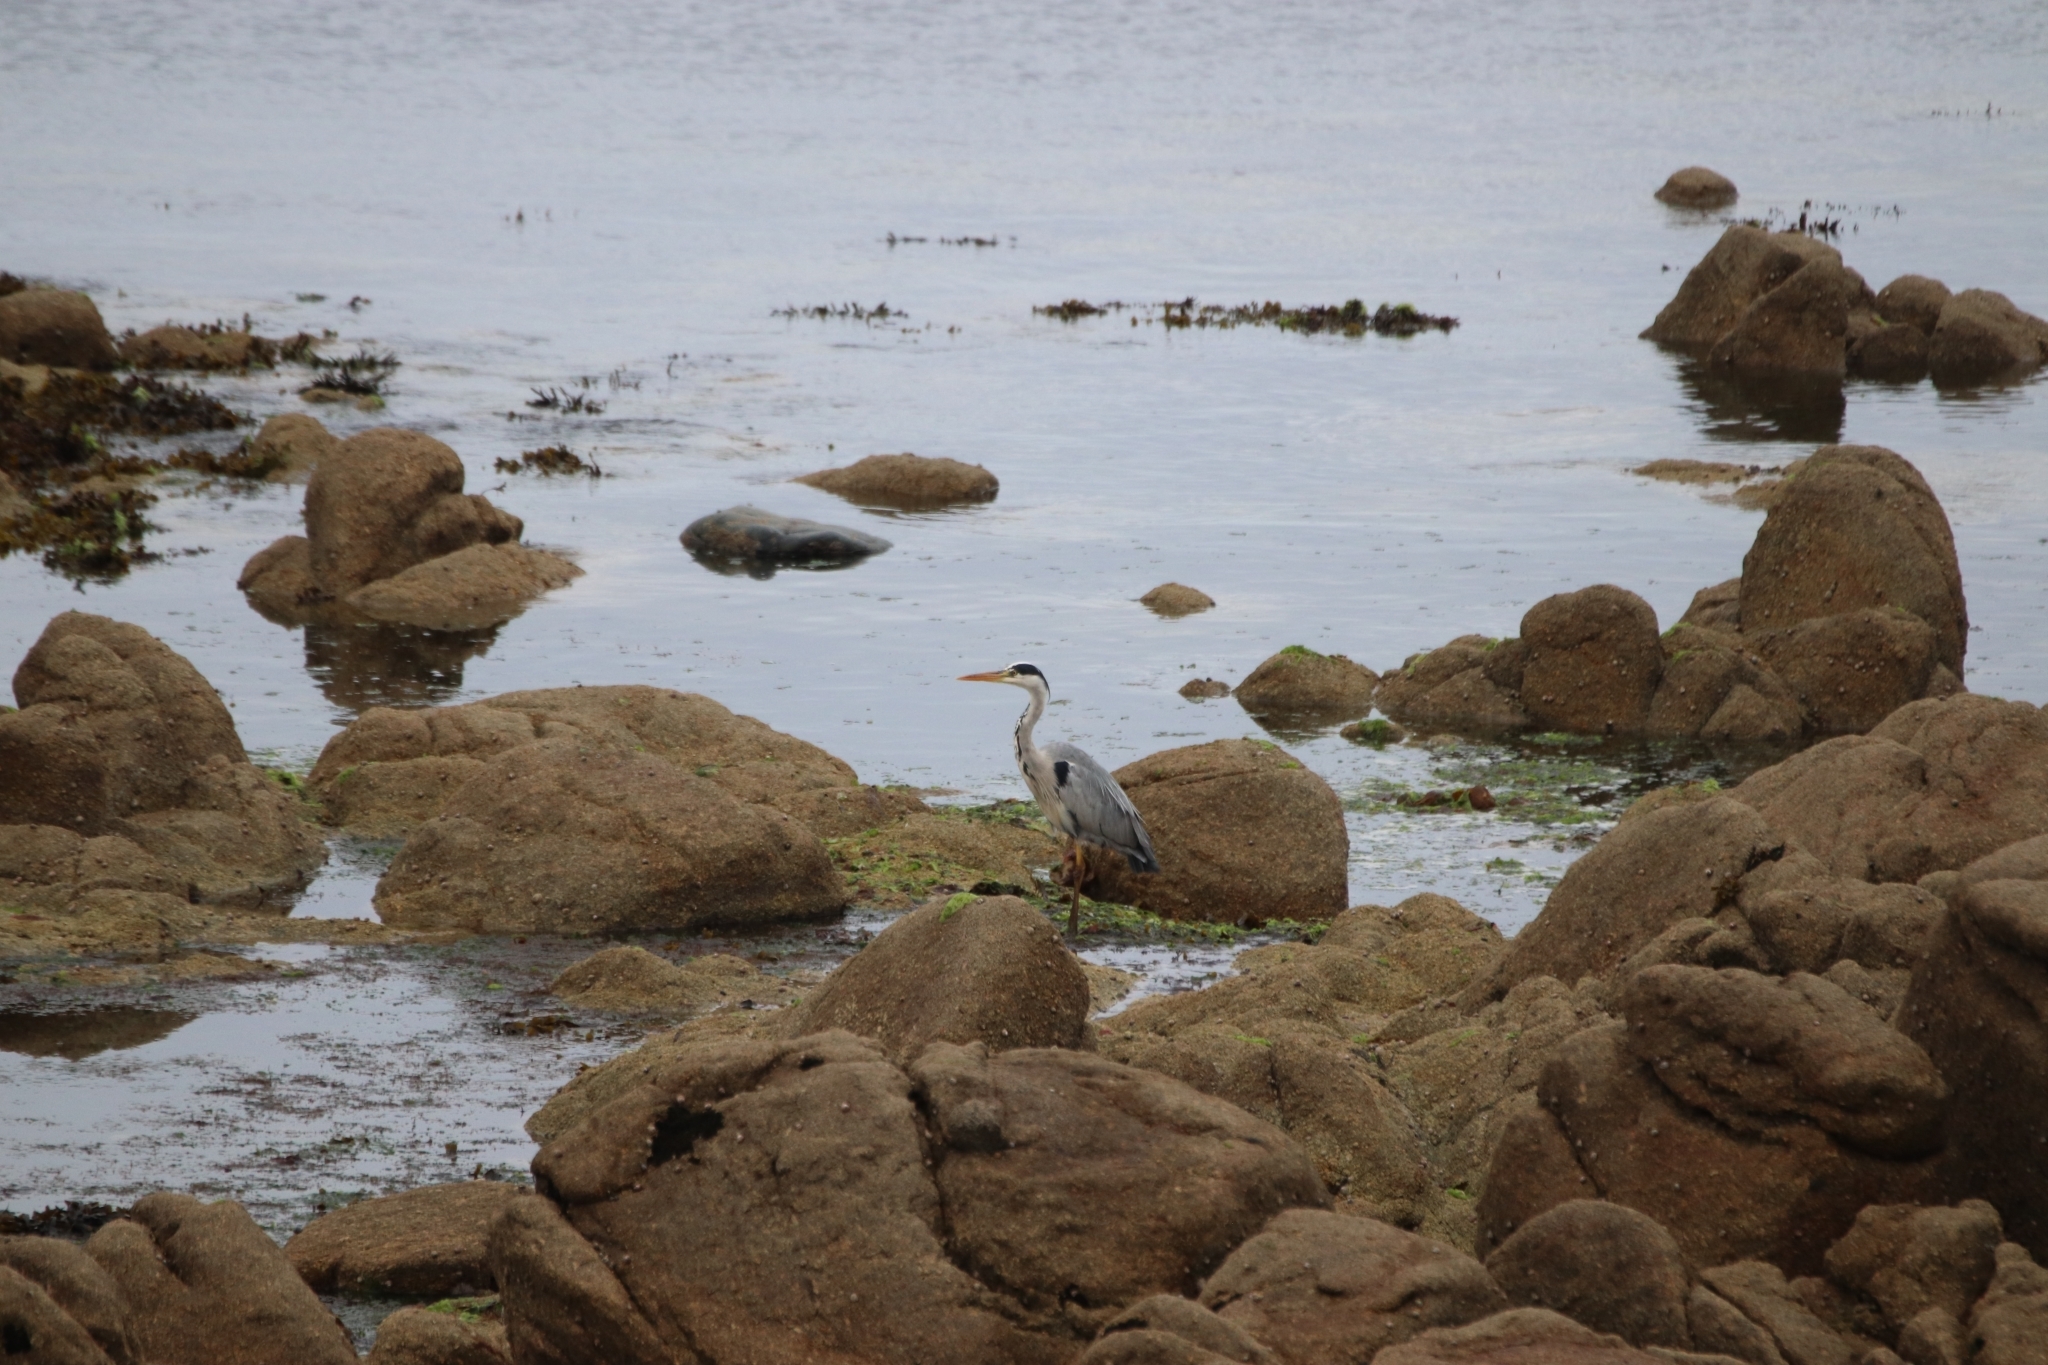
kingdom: Animalia
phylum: Chordata
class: Aves
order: Pelecaniformes
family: Ardeidae
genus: Ardea
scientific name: Ardea cinerea
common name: Grey heron
